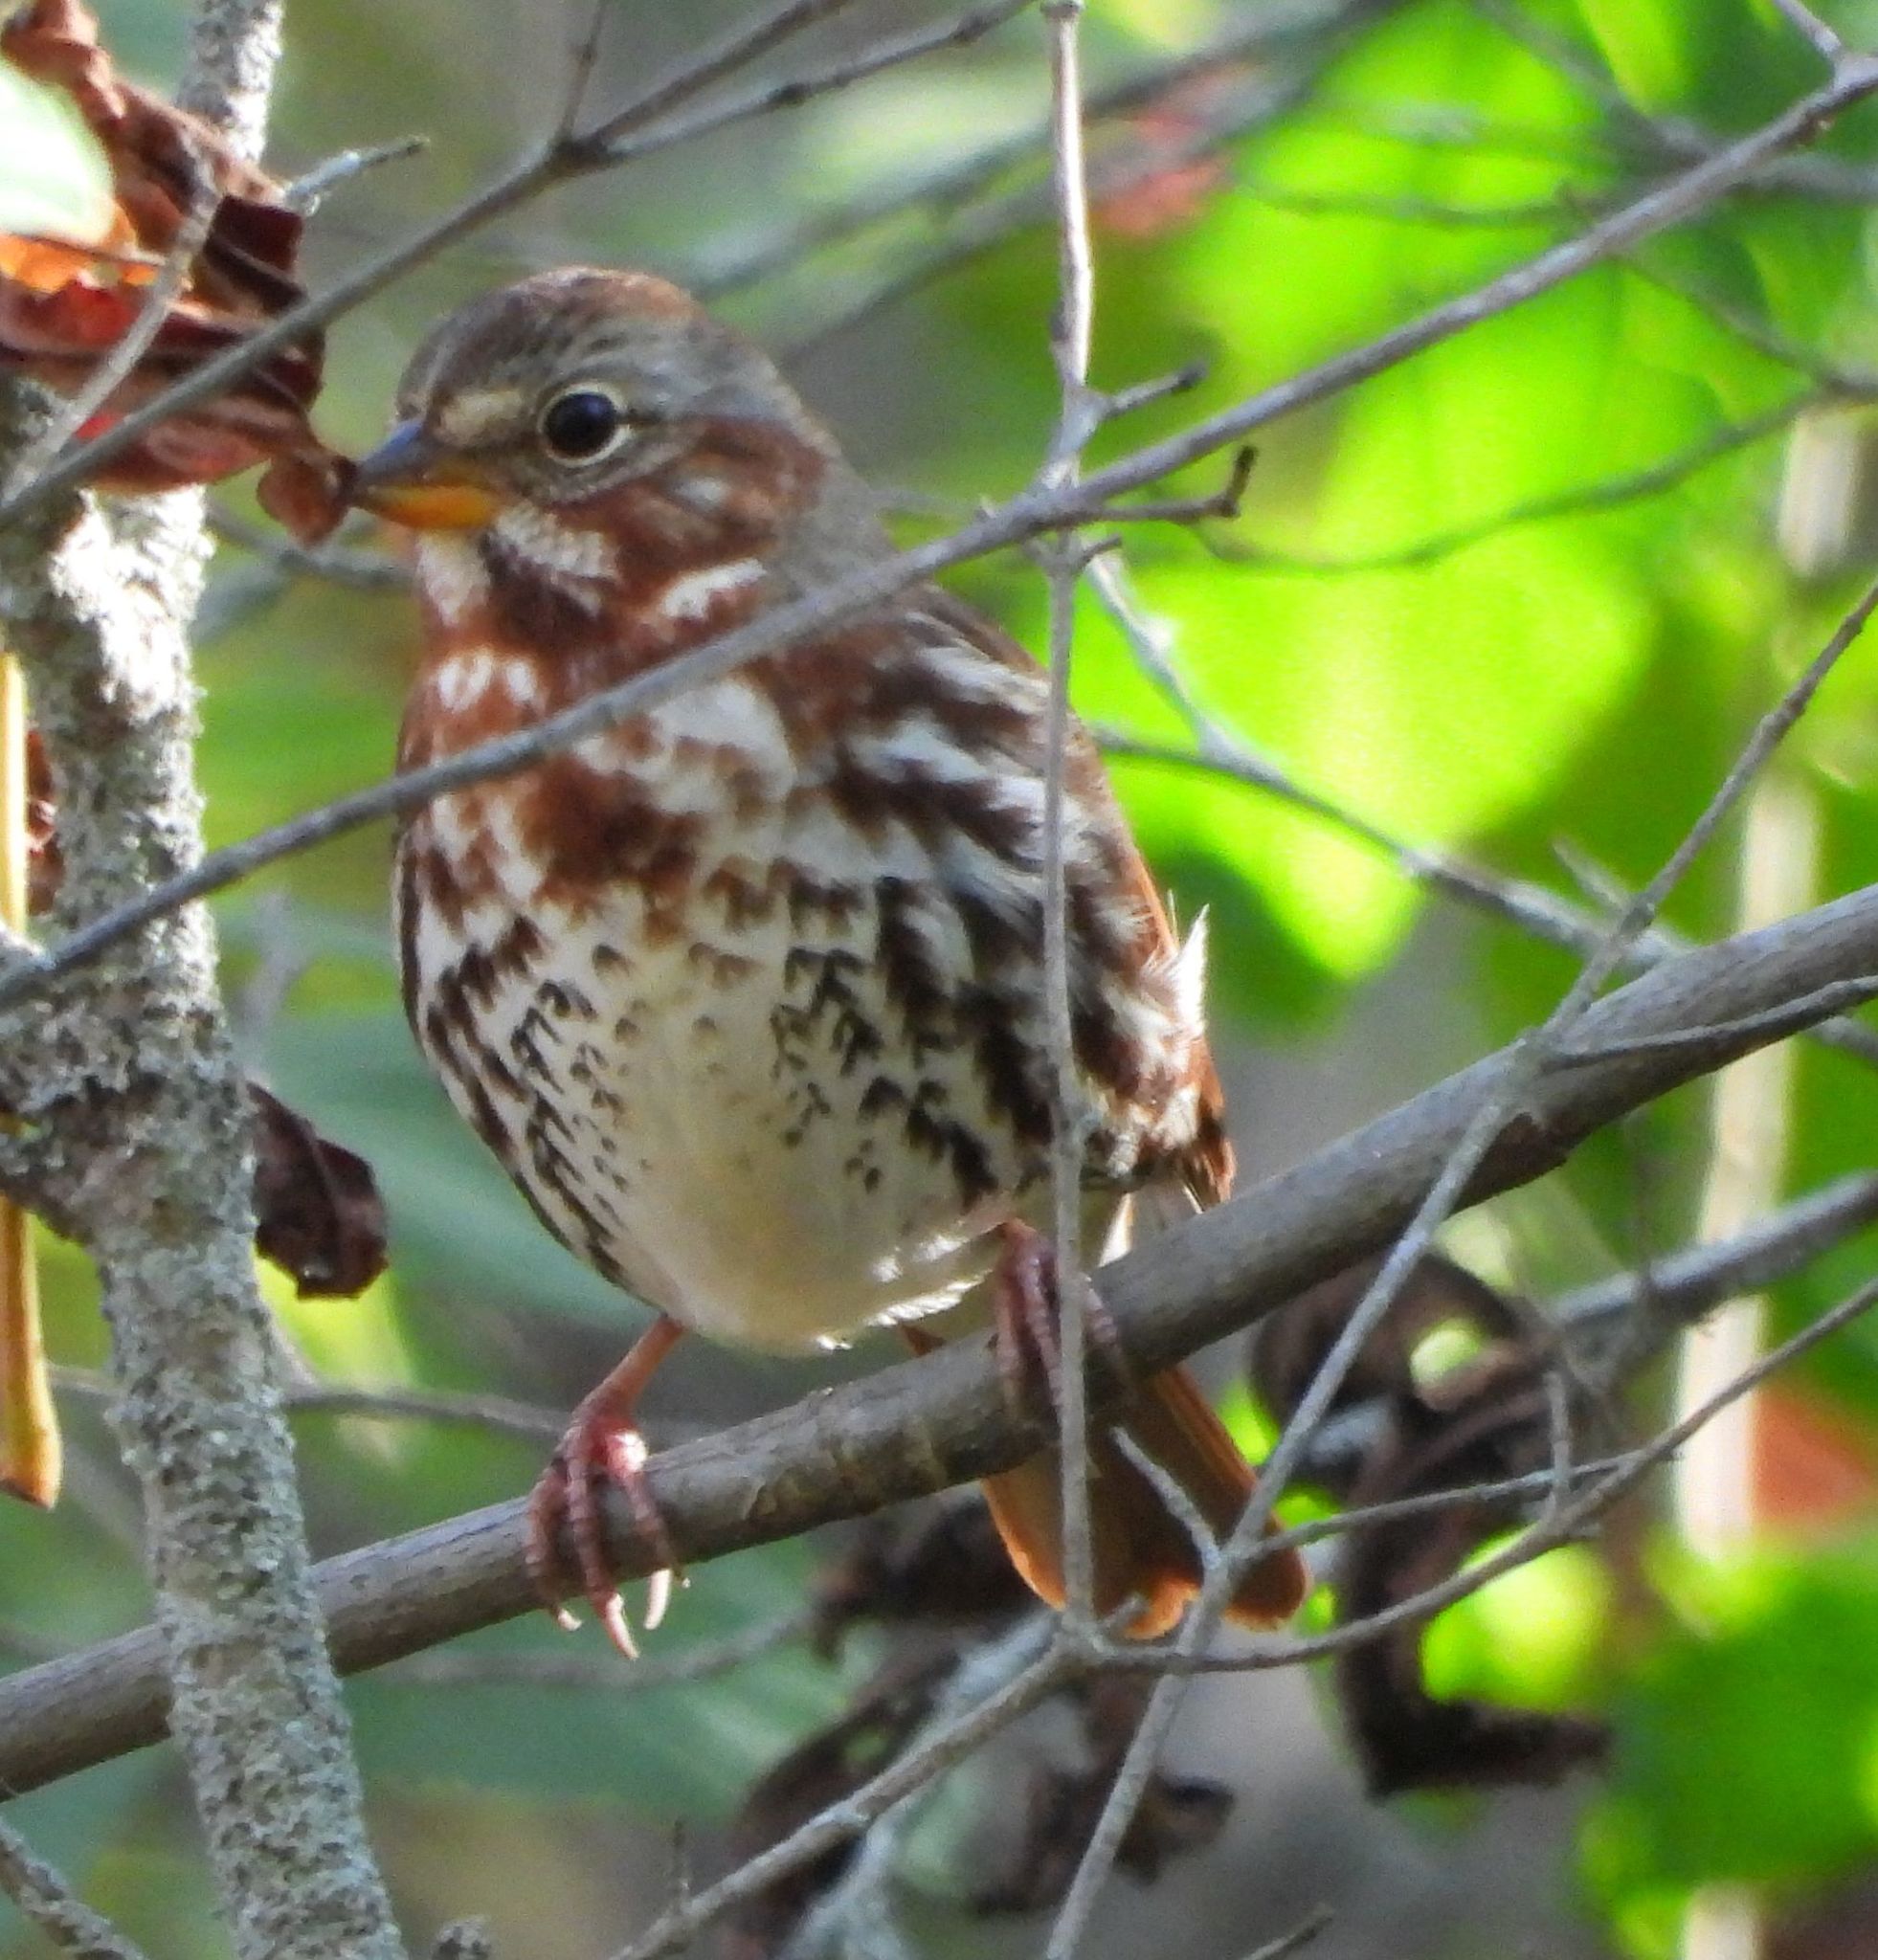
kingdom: Animalia
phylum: Chordata
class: Aves
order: Passeriformes
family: Passerellidae
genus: Passerella
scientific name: Passerella iliaca
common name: Fox sparrow
